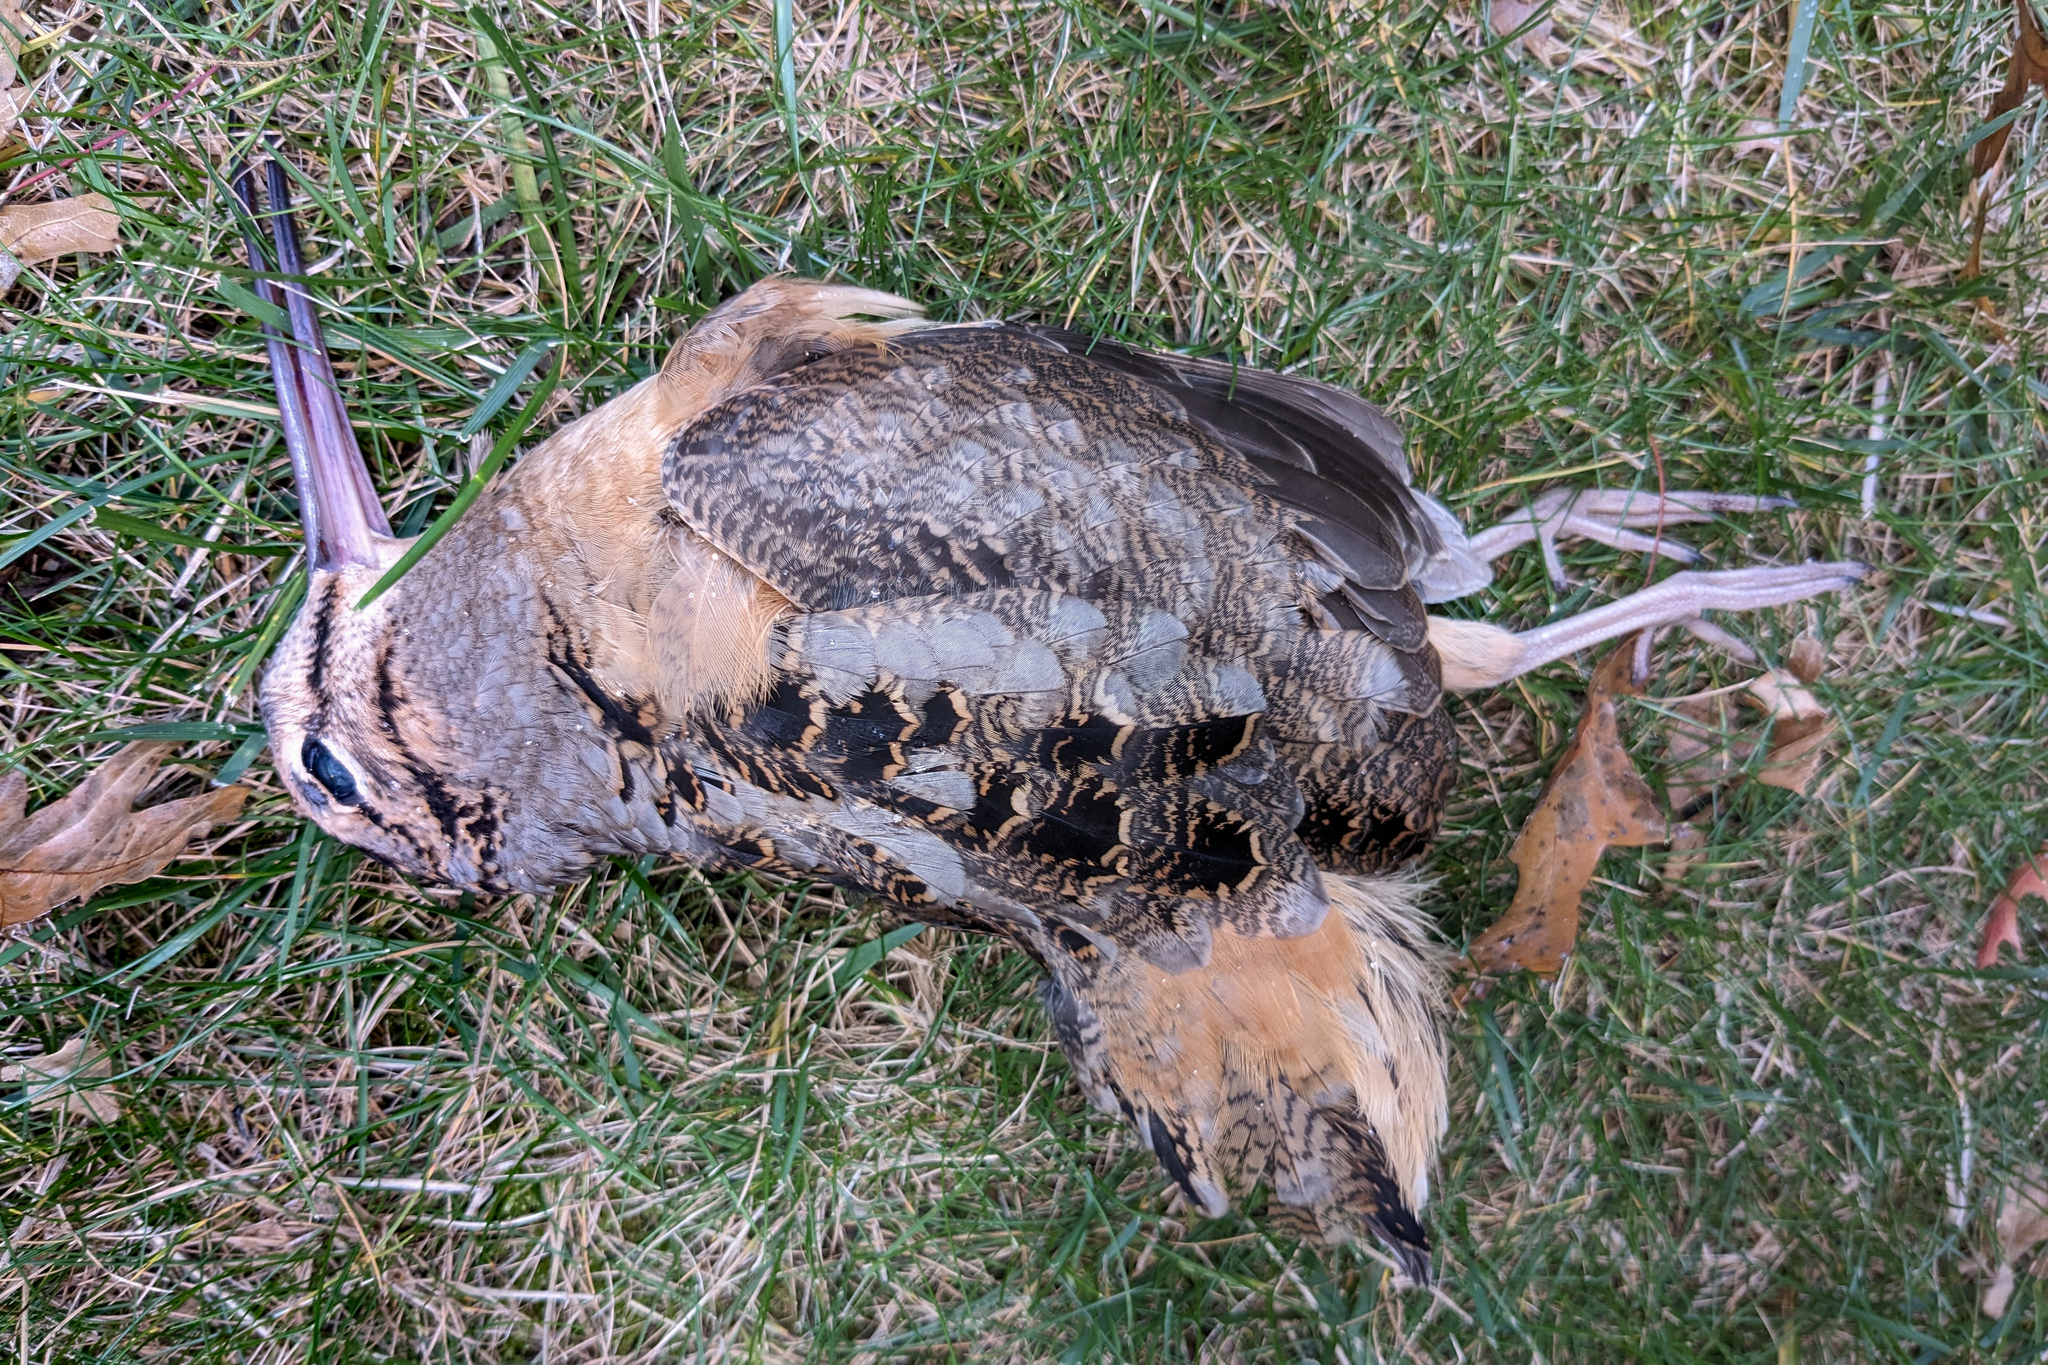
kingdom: Animalia
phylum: Chordata
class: Aves
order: Charadriiformes
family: Scolopacidae
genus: Scolopax
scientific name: Scolopax minor
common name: American woodcock
